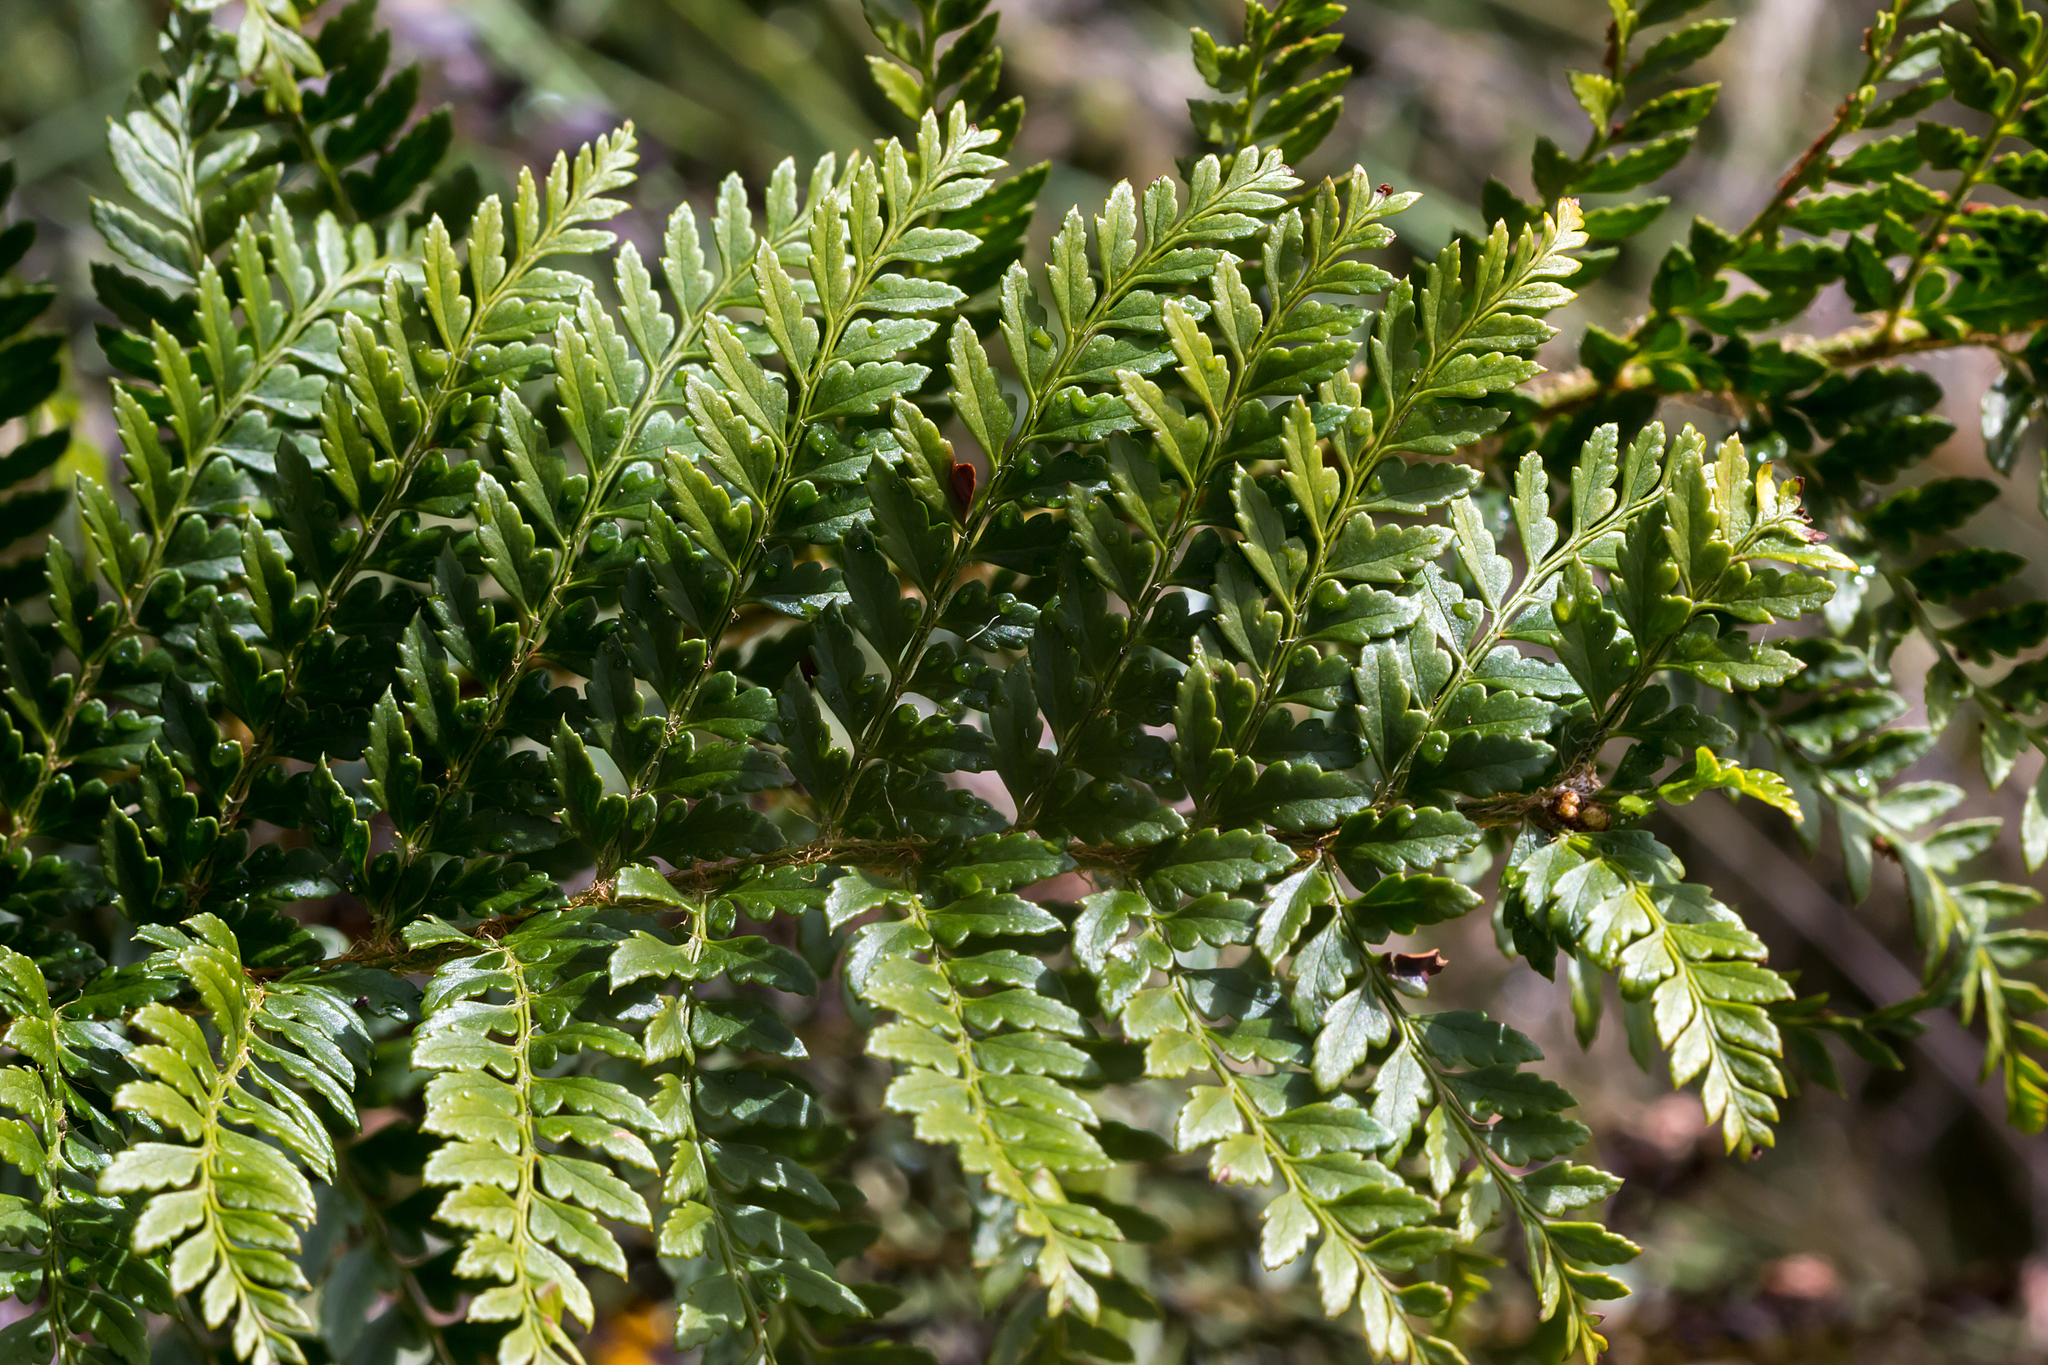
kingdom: Plantae
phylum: Tracheophyta
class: Polypodiopsida
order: Polypodiales
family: Dryopteridaceae
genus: Polystichum
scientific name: Polystichum proliferum
